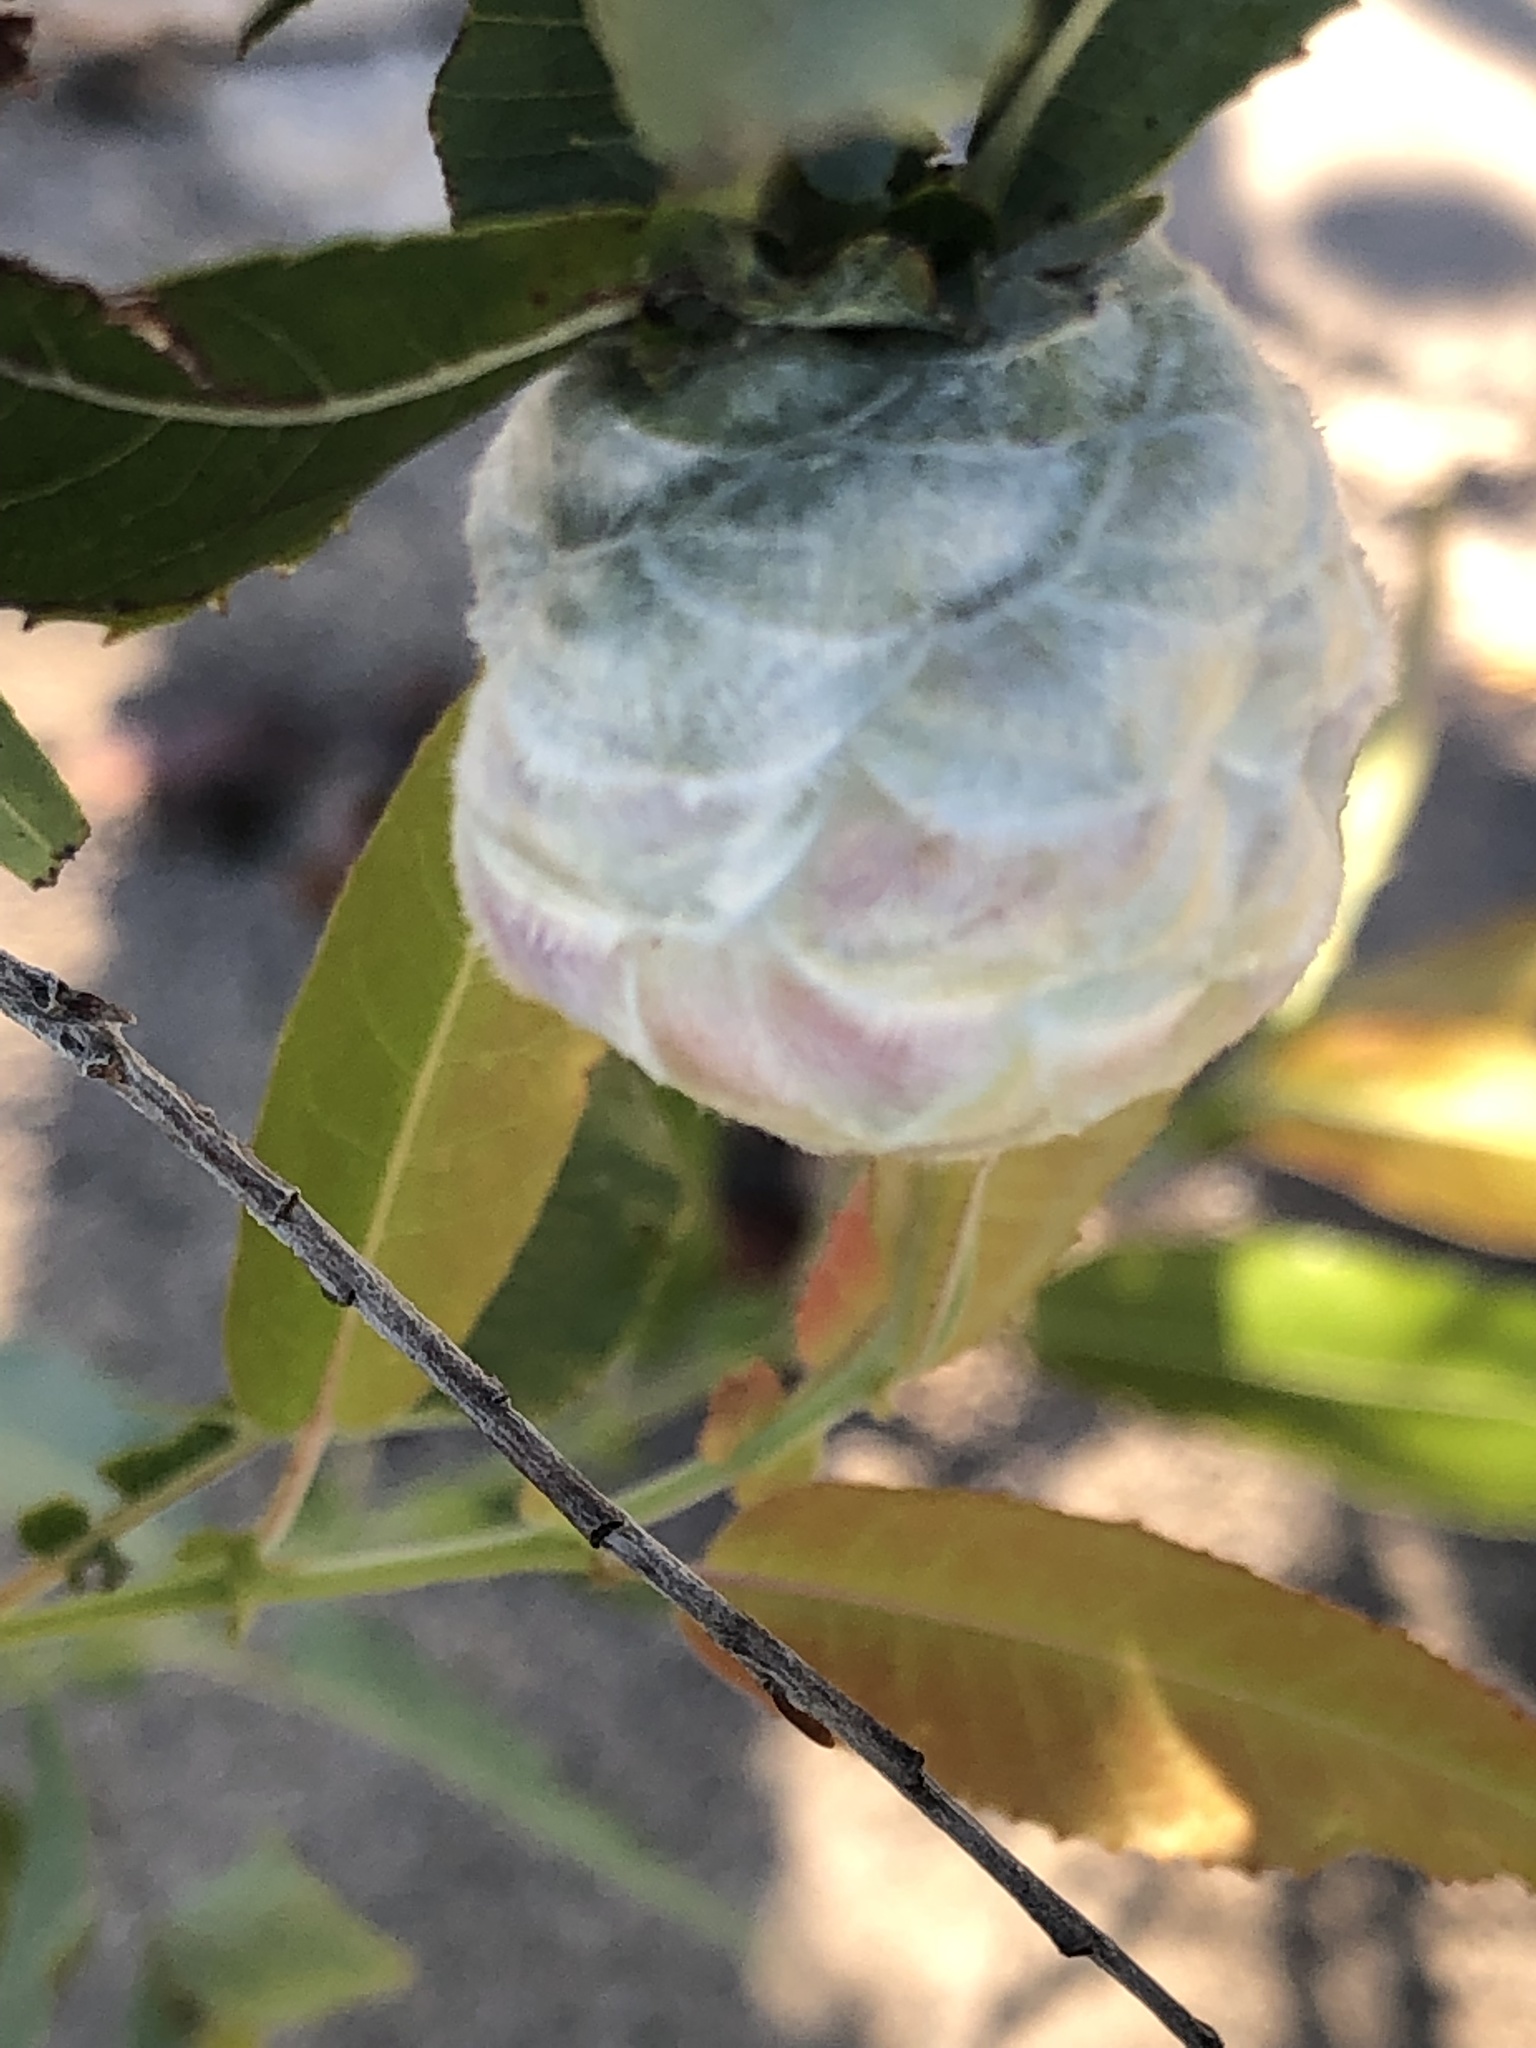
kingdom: Animalia
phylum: Arthropoda
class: Insecta
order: Diptera
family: Cecidomyiidae
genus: Rabdophaga
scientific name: Rabdophaga strobiloides
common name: Willow pinecone gall midge
